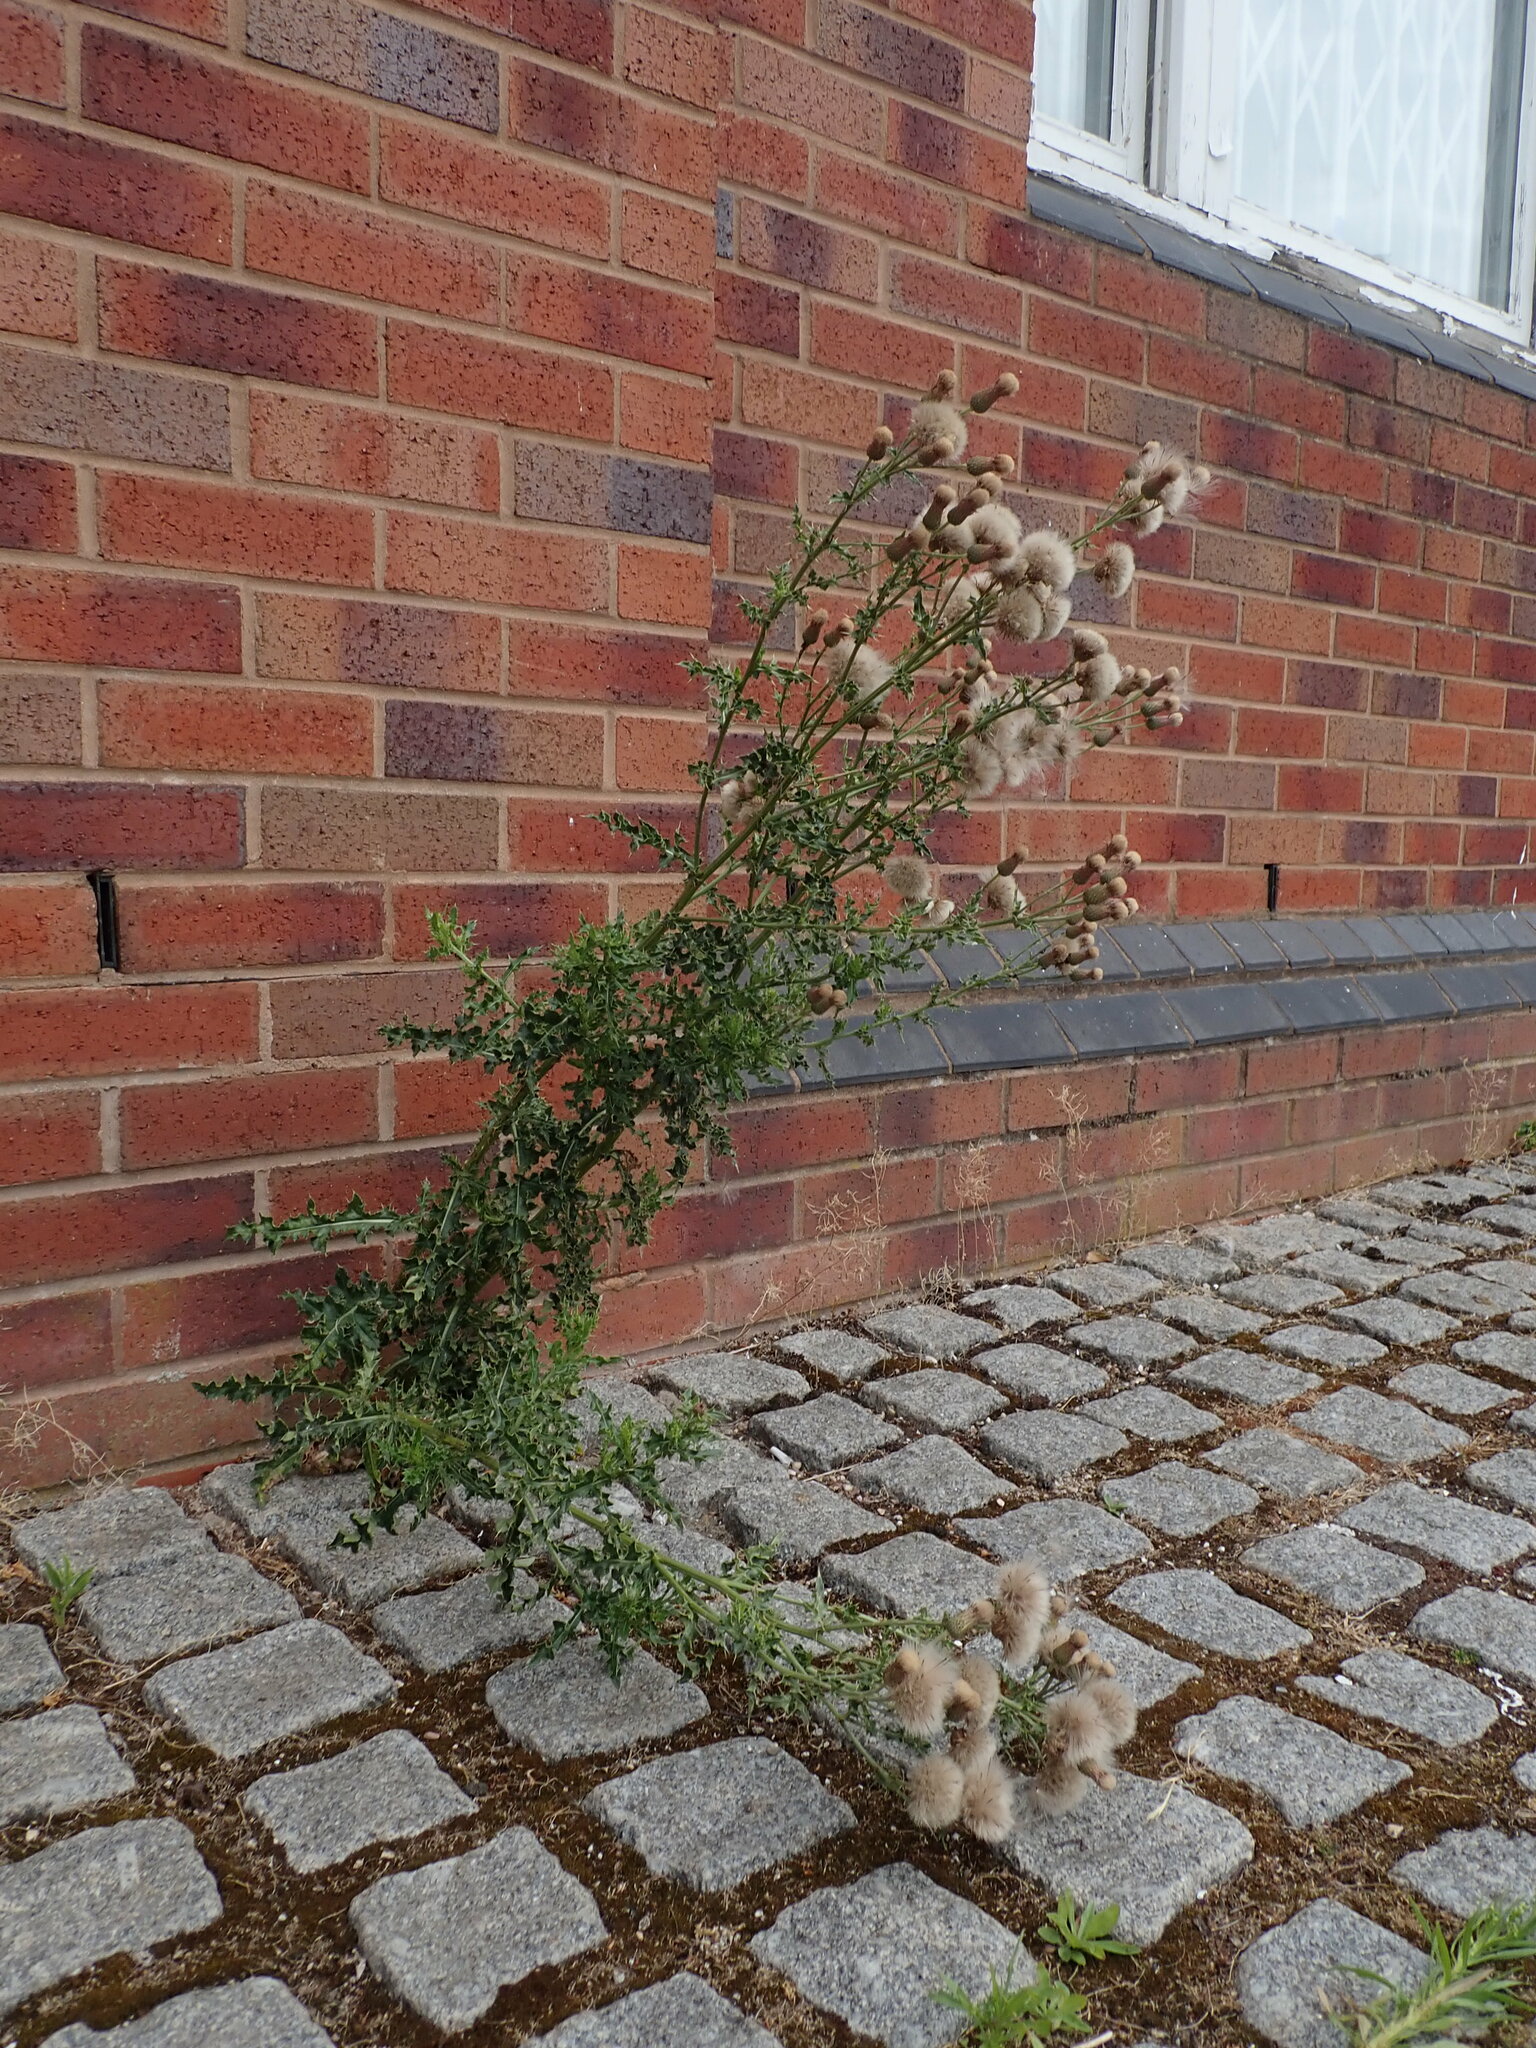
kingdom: Plantae
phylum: Tracheophyta
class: Magnoliopsida
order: Asterales
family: Asteraceae
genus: Cirsium
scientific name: Cirsium arvense
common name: Creeping thistle
